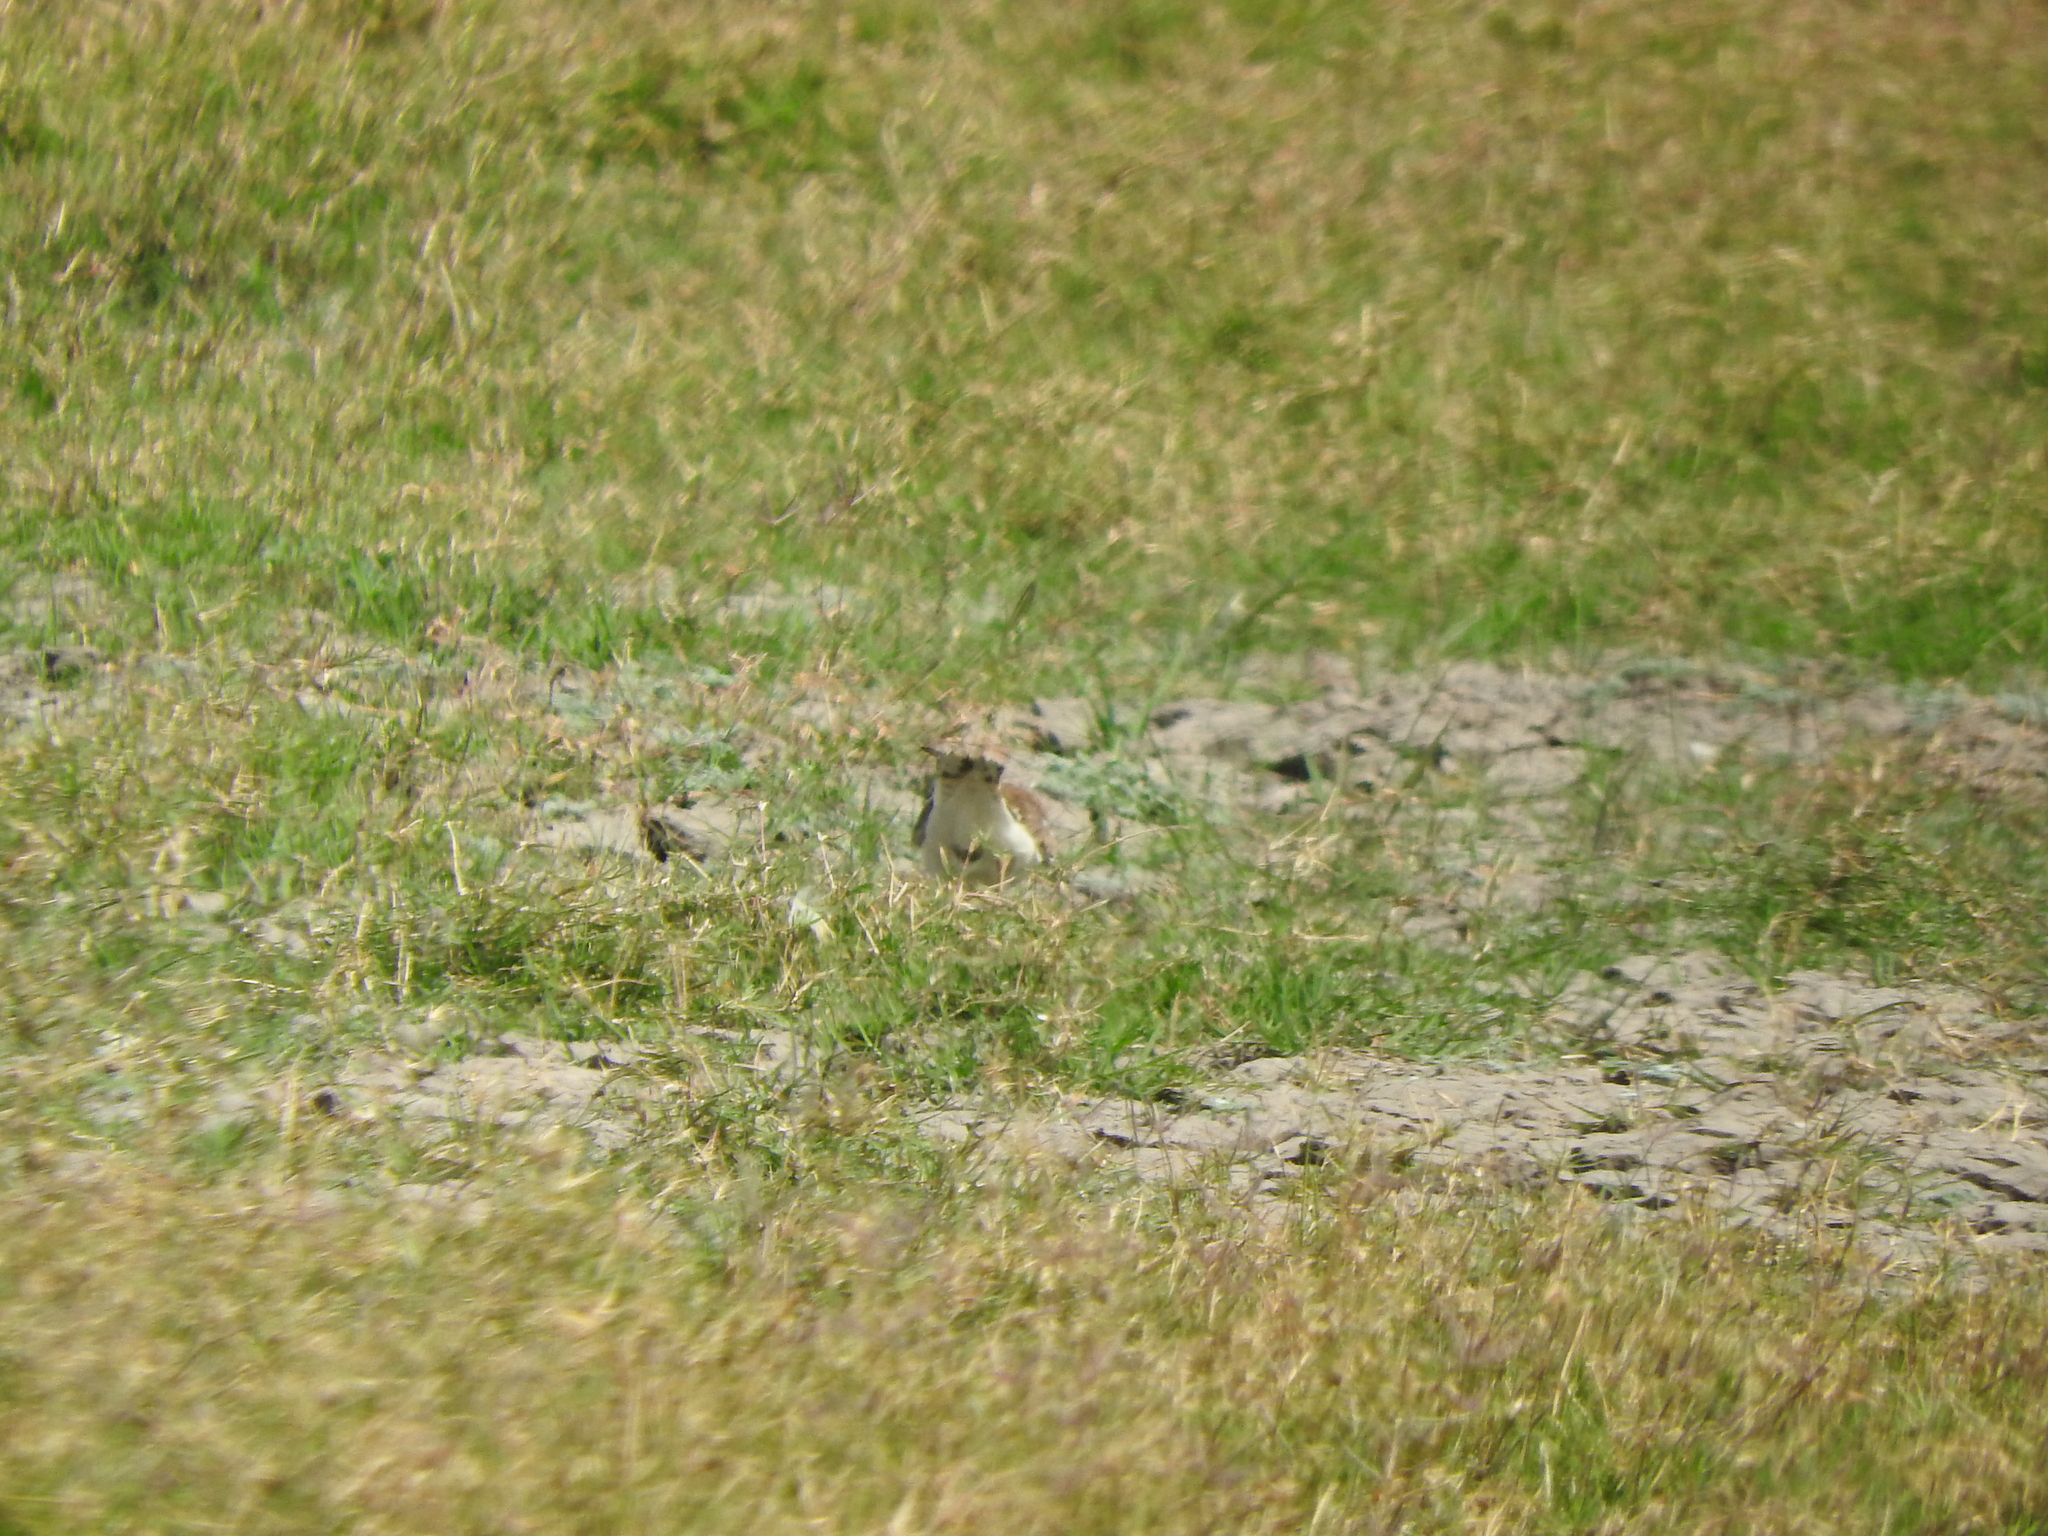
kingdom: Animalia
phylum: Chordata
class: Aves
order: Charadriiformes
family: Charadriidae
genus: Charadrius
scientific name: Charadrius vociferus
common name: Killdeer
